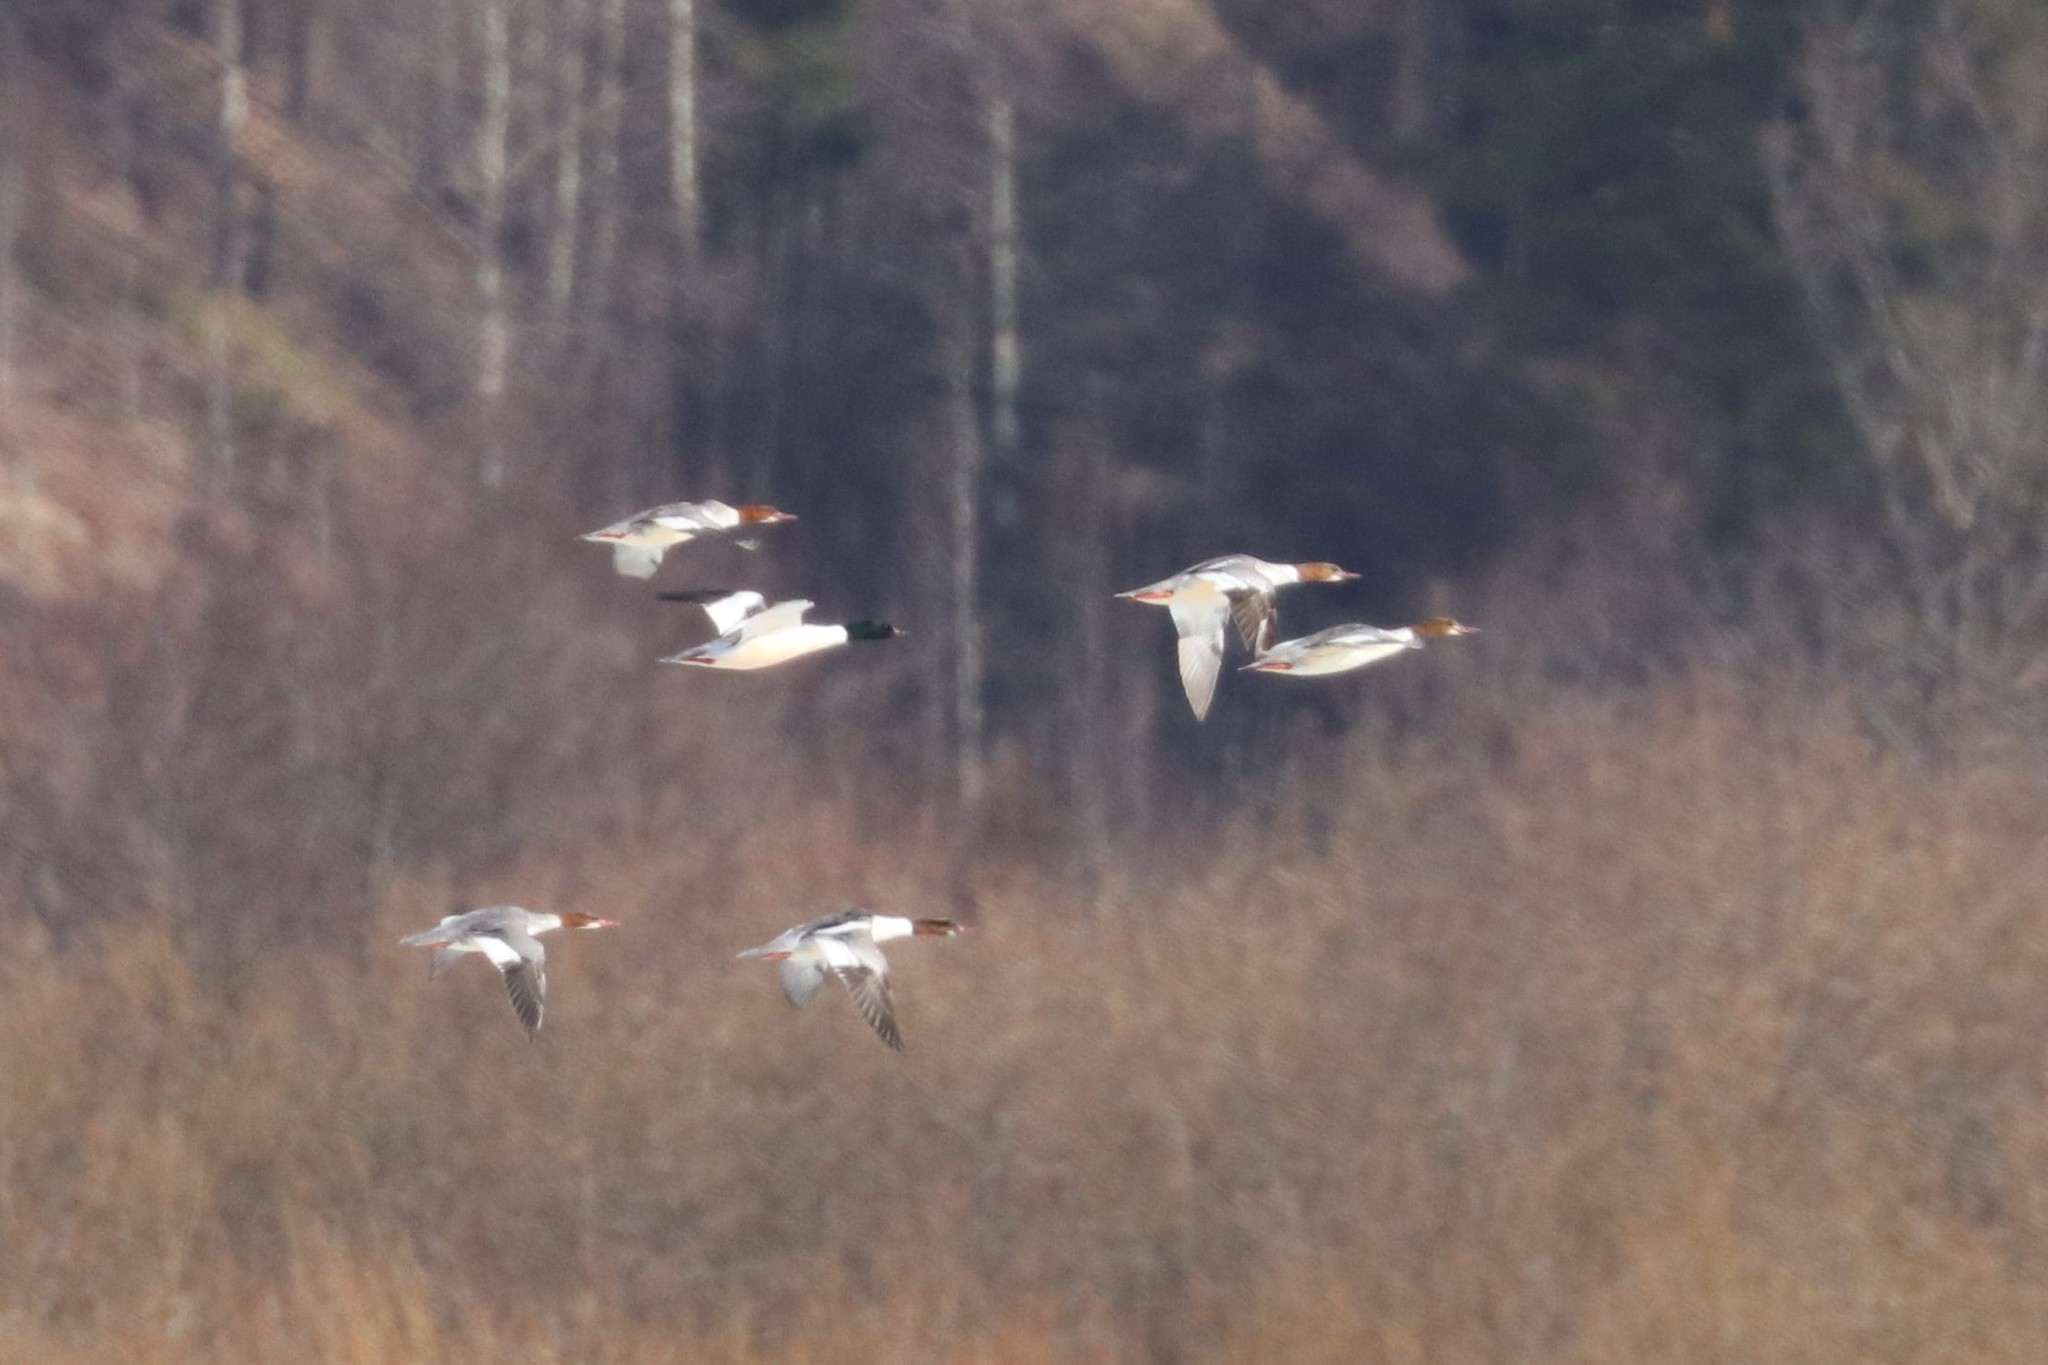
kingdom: Animalia
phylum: Chordata
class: Aves
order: Anseriformes
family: Anatidae
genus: Mergus
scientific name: Mergus merganser
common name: Common merganser
